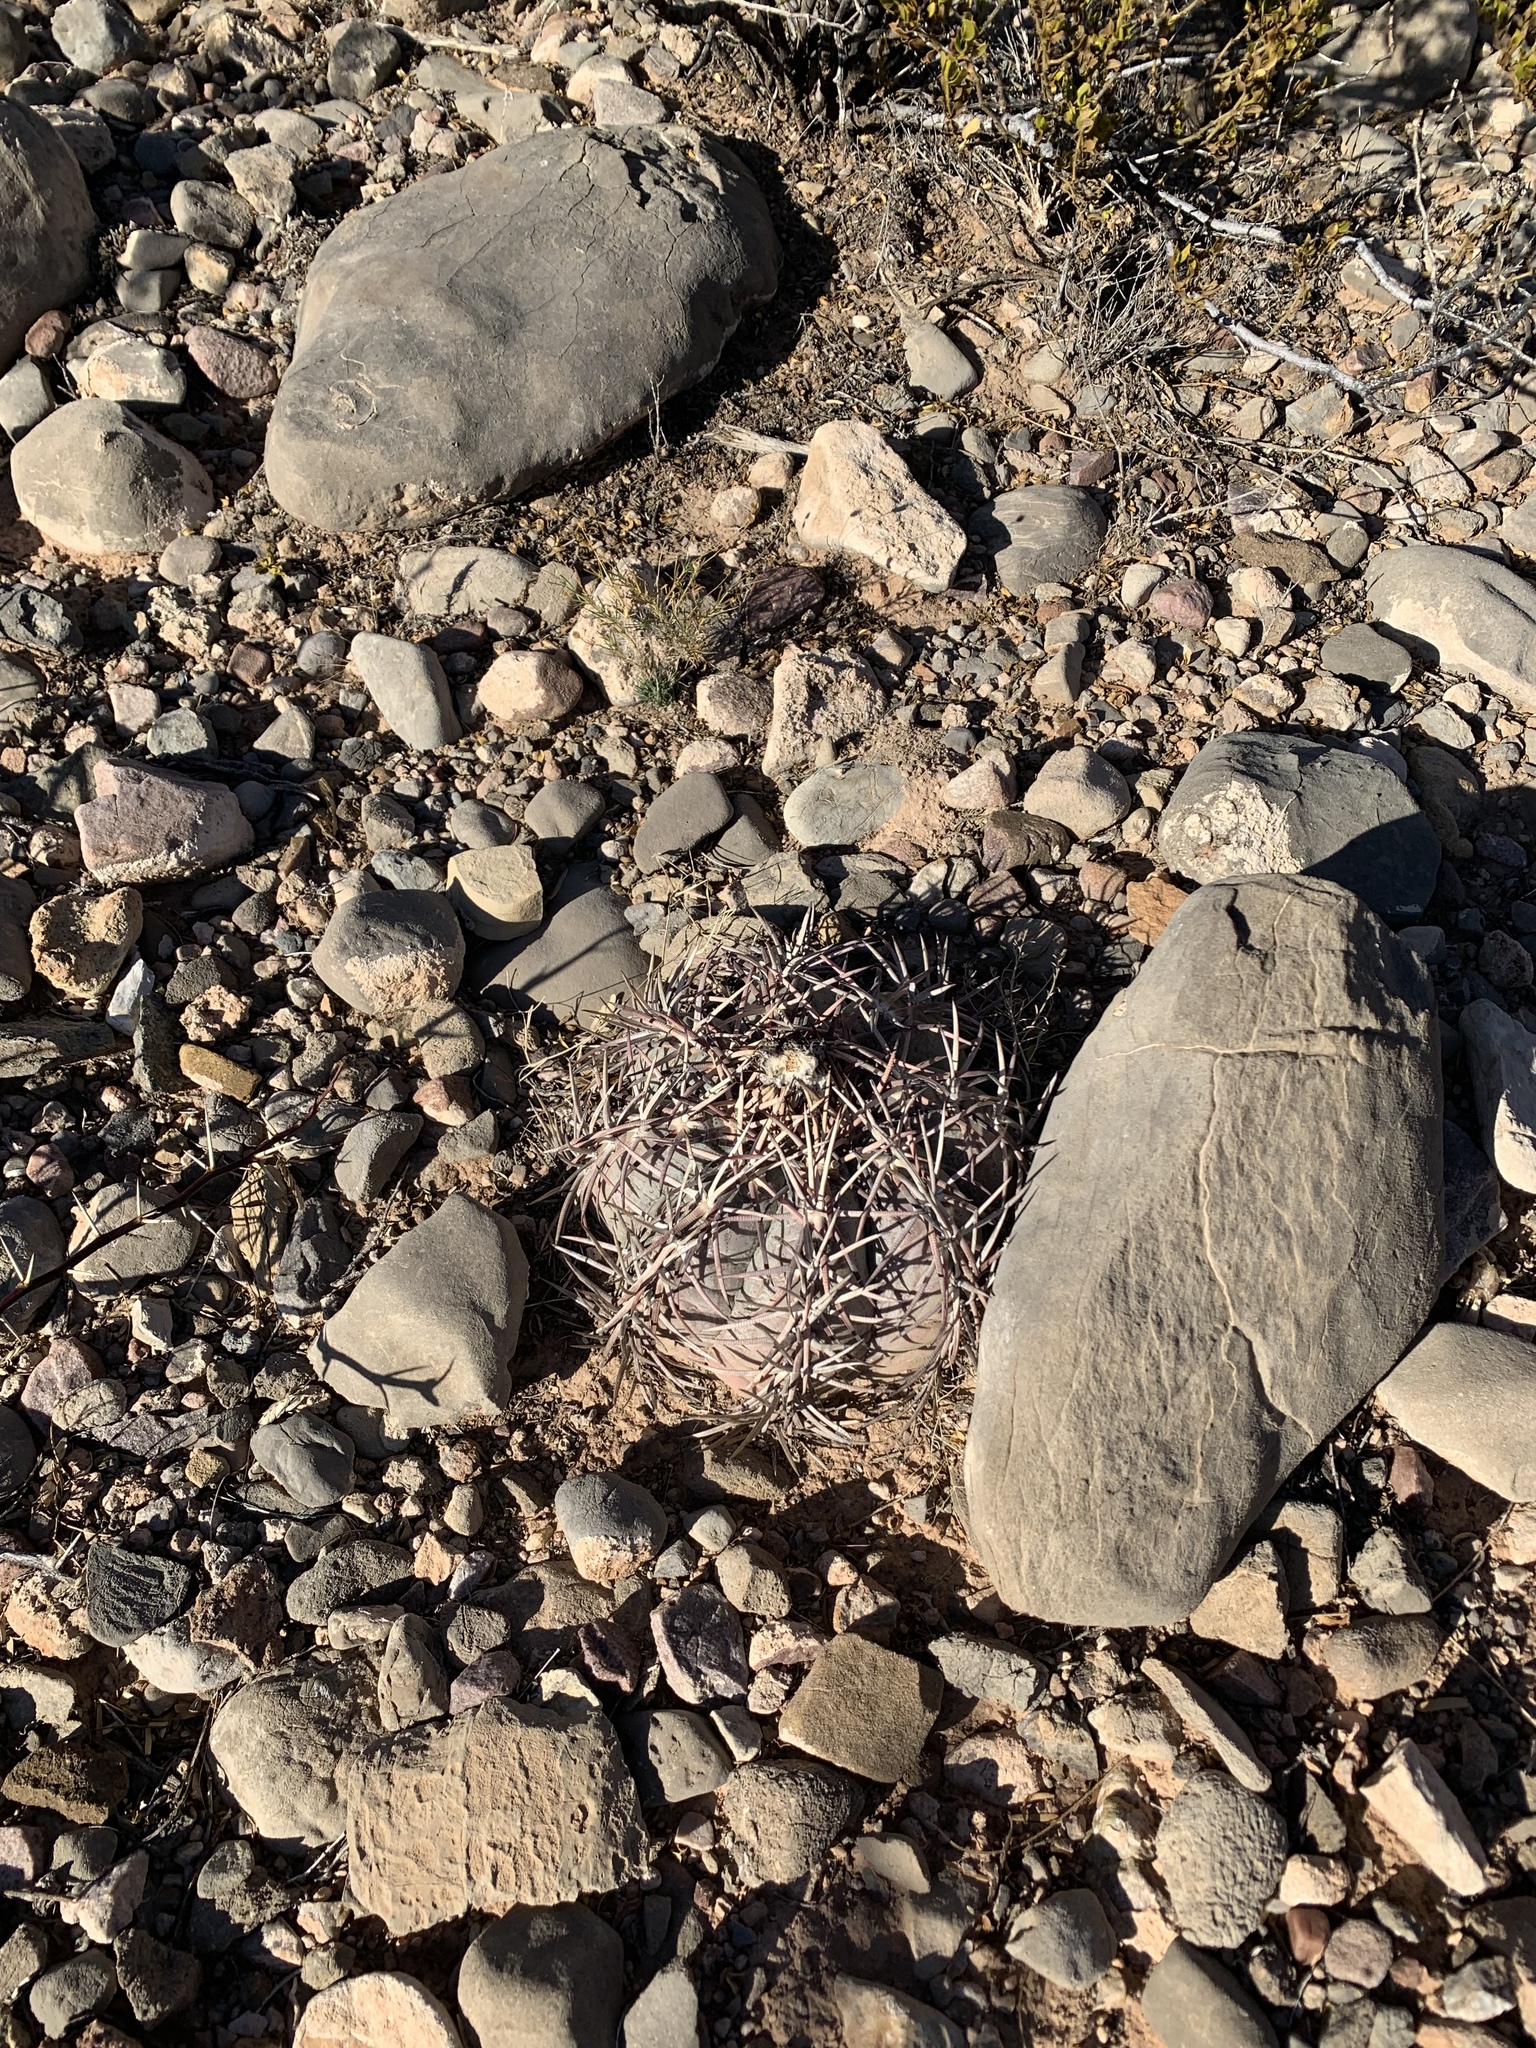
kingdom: Plantae
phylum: Tracheophyta
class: Magnoliopsida
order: Caryophyllales
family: Cactaceae
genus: Echinocactus
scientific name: Echinocactus horizonthalonius
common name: Devilshead
